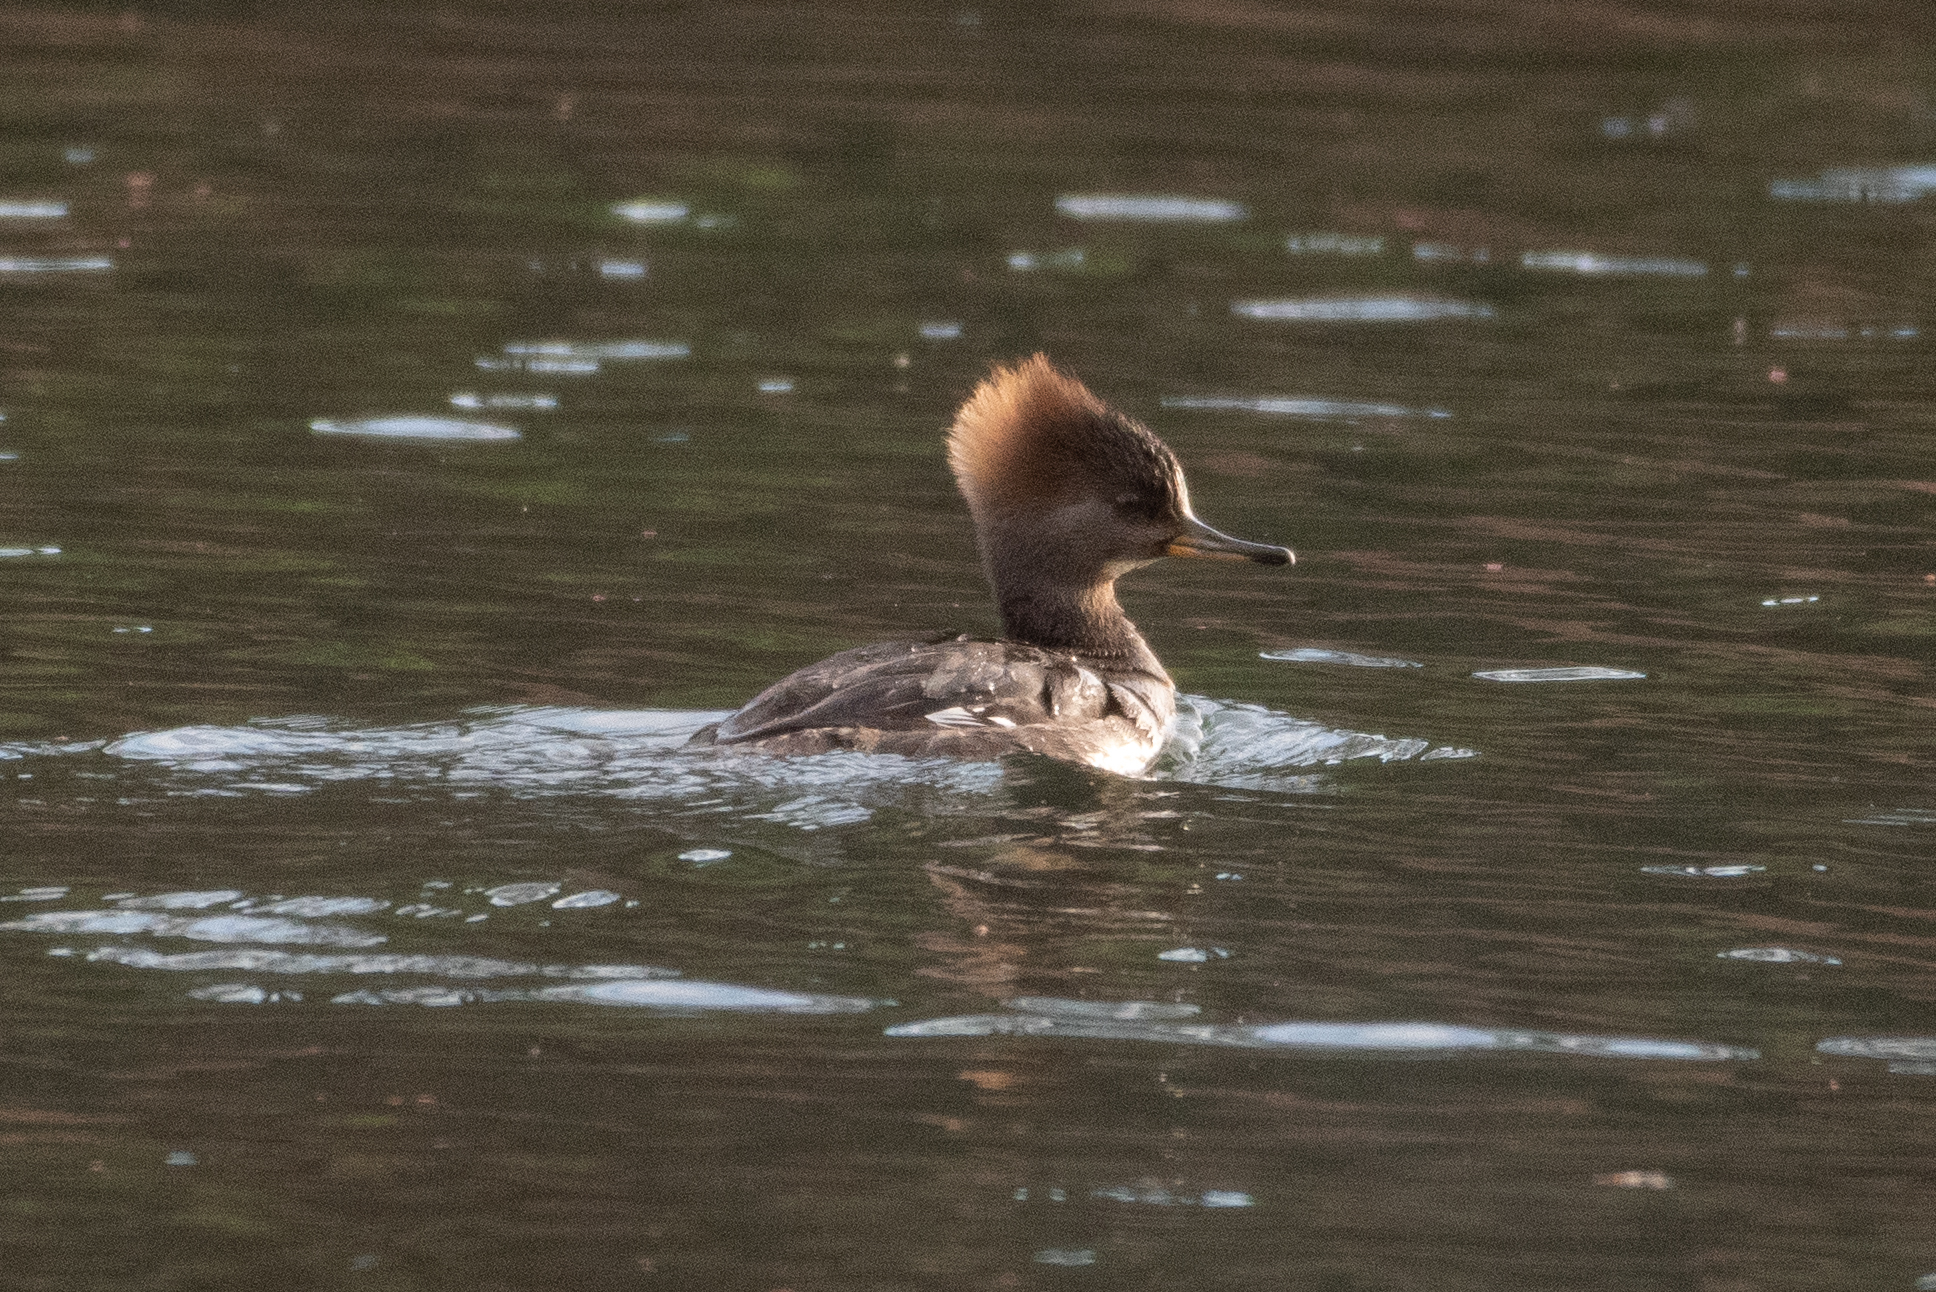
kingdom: Animalia
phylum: Chordata
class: Aves
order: Anseriformes
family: Anatidae
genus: Lophodytes
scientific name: Lophodytes cucullatus
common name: Hooded merganser
